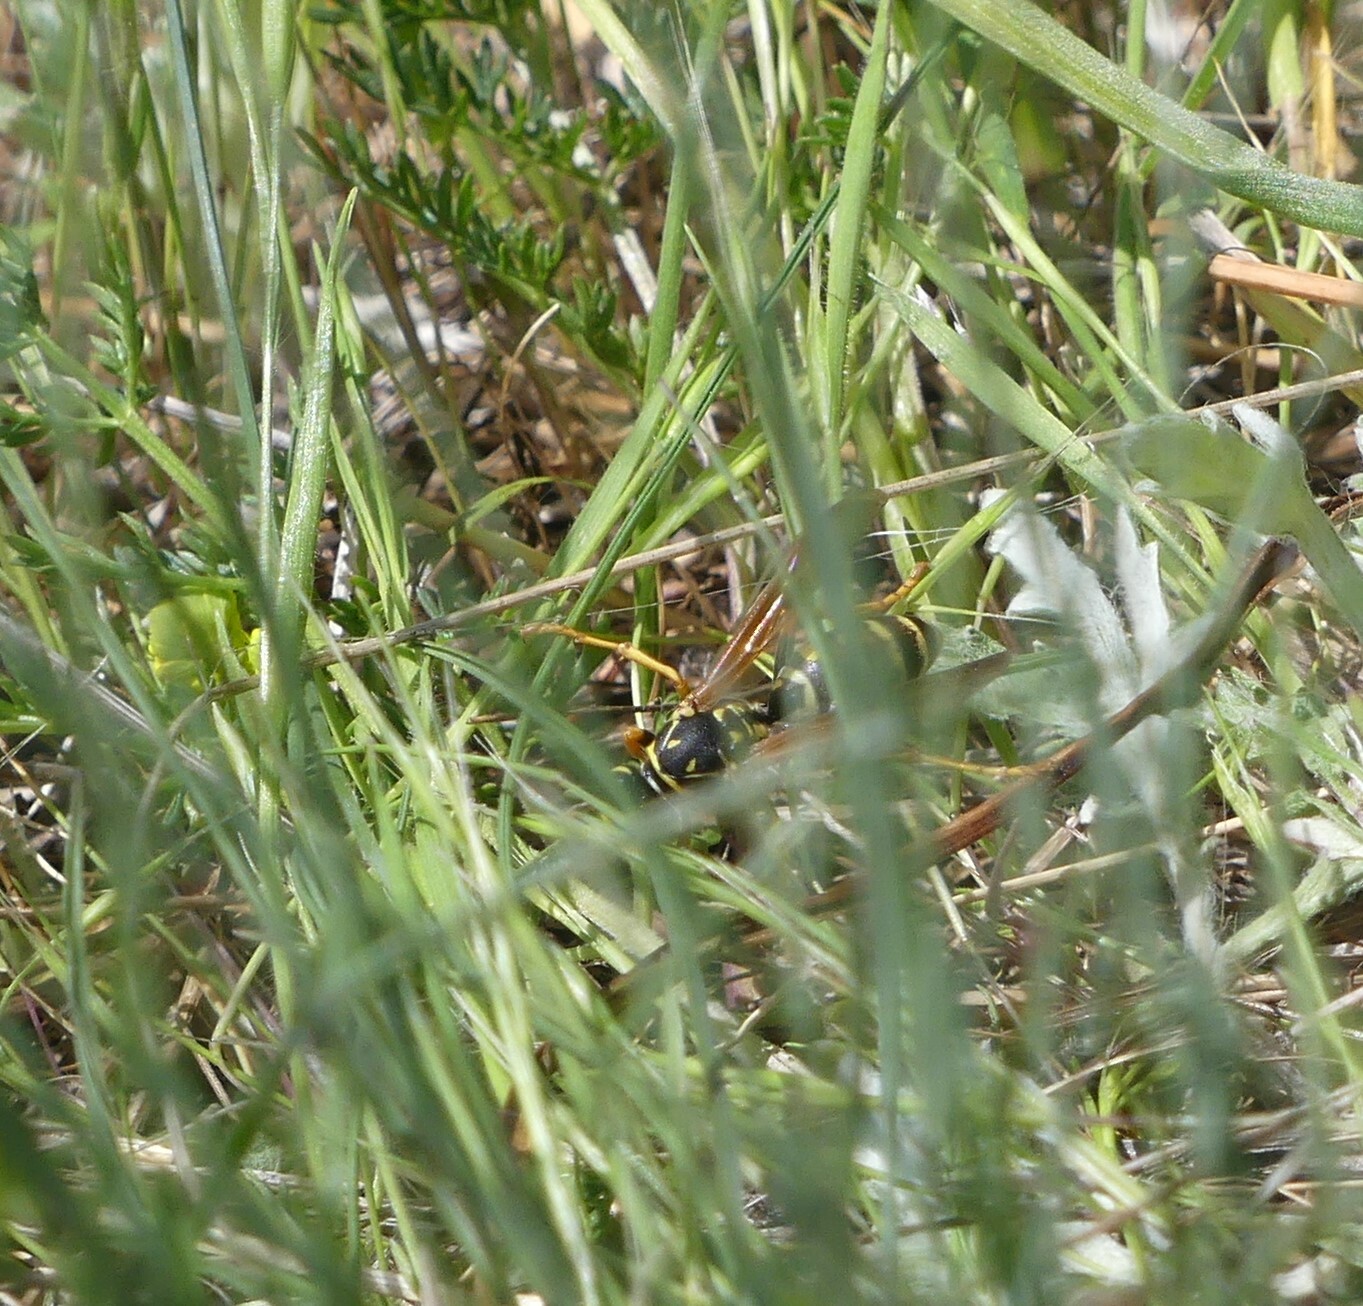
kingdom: Animalia
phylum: Arthropoda
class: Insecta
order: Hymenoptera
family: Eumenidae
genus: Polistes
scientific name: Polistes dominula
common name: Paper wasp
